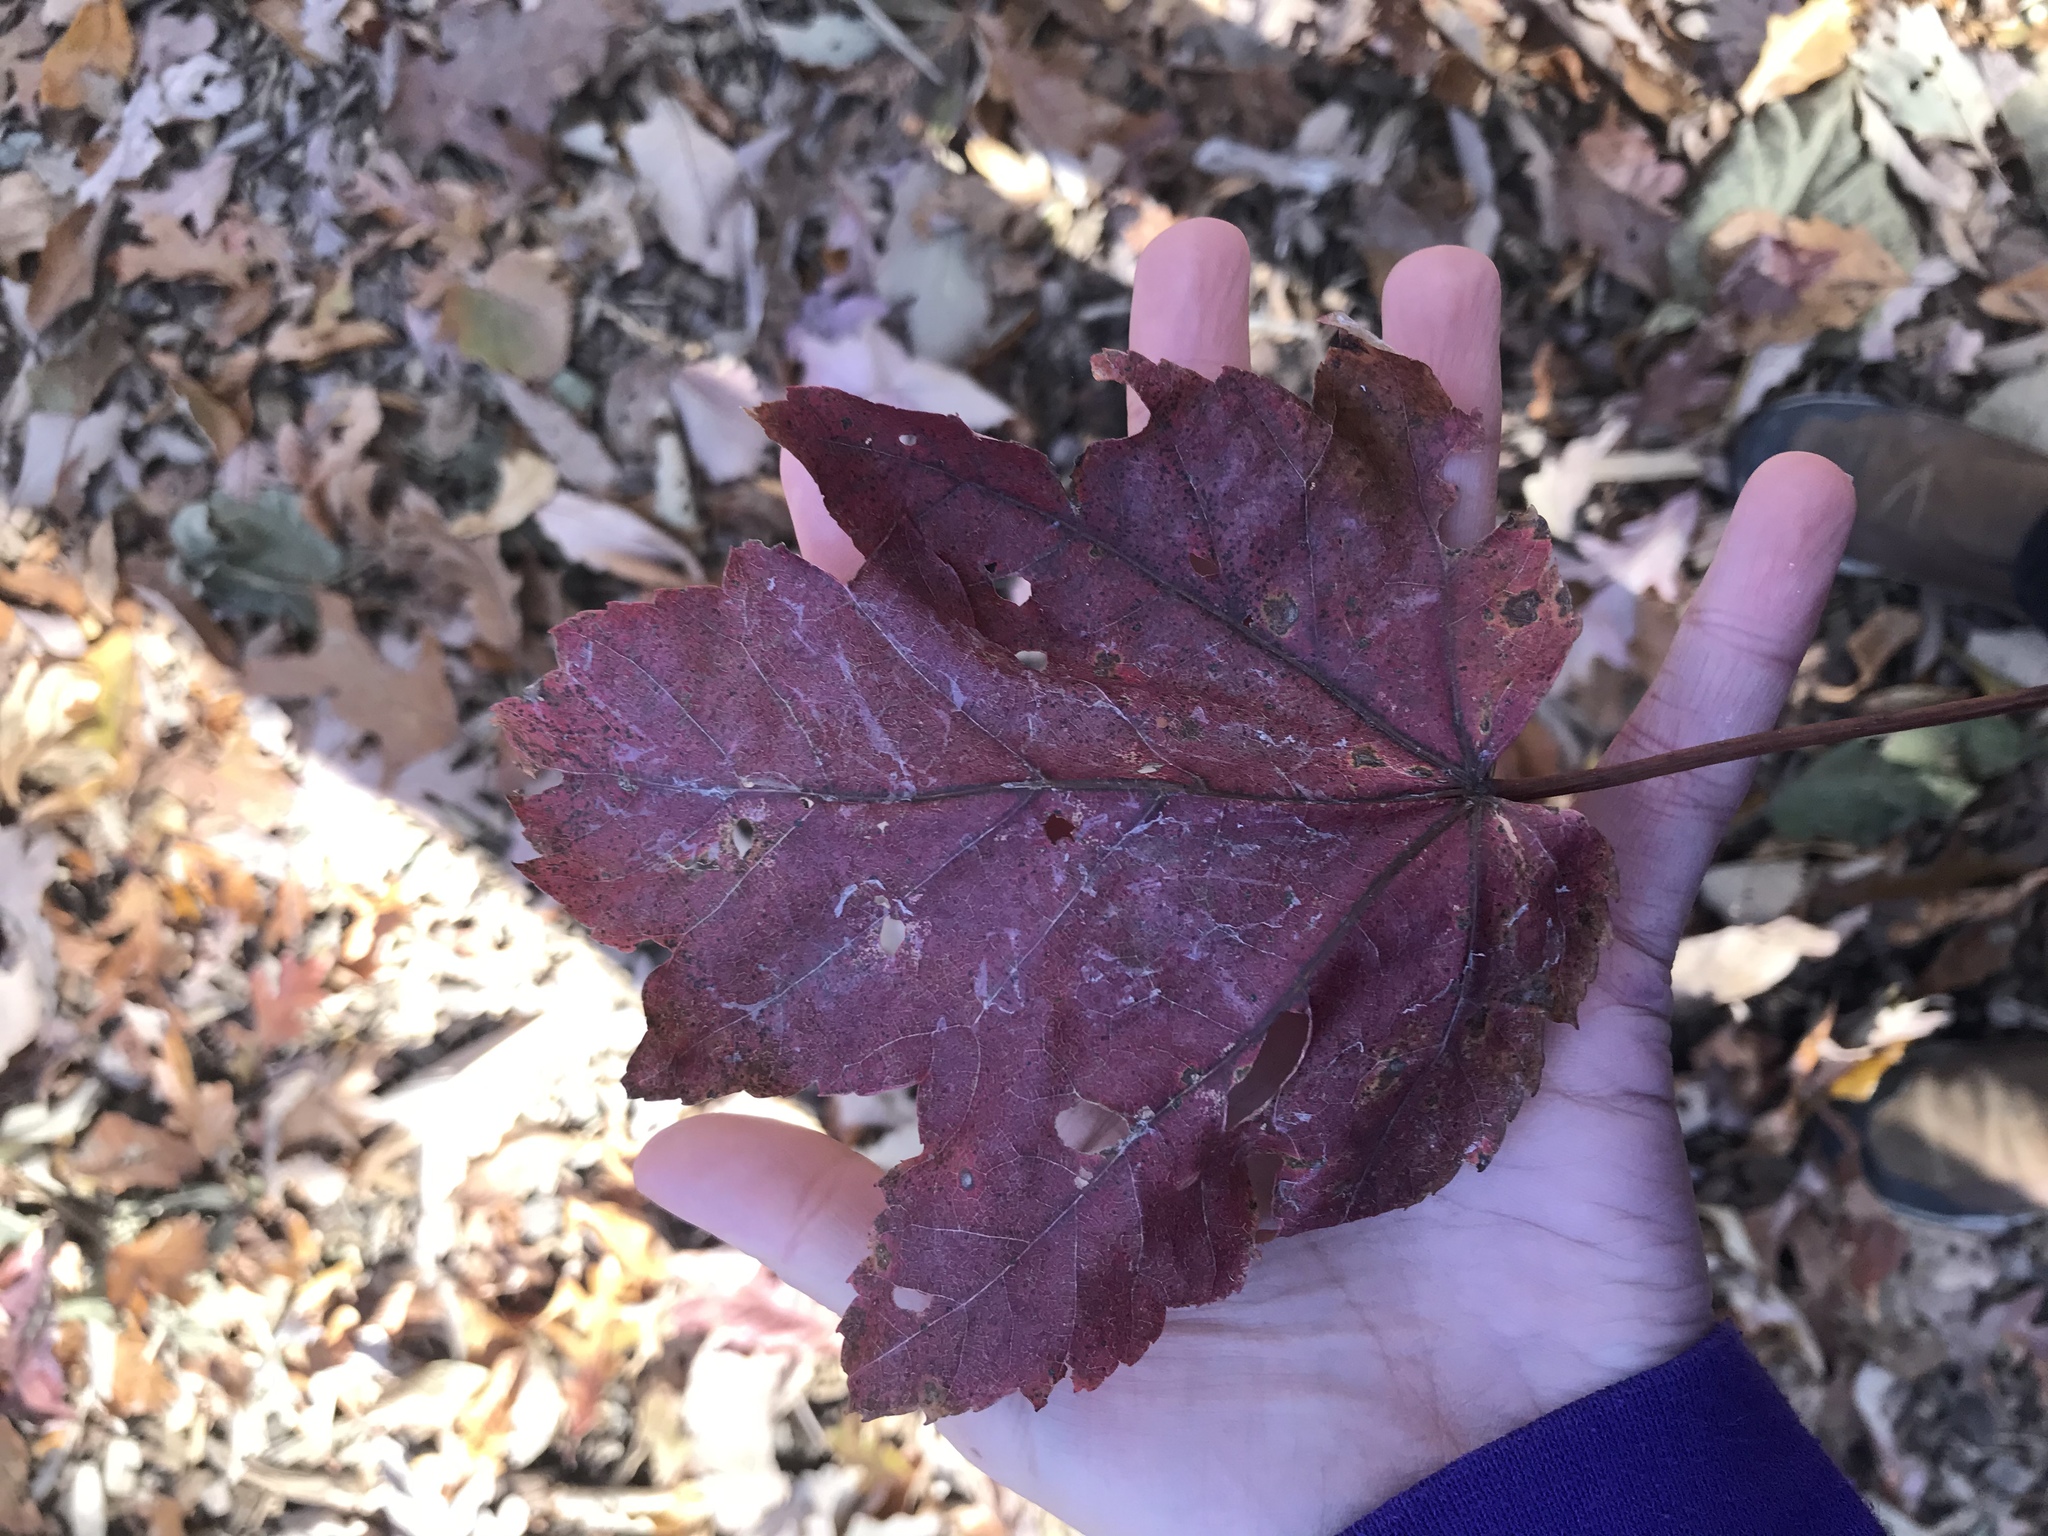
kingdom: Plantae
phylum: Tracheophyta
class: Magnoliopsida
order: Sapindales
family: Sapindaceae
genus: Acer
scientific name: Acer rubrum
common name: Red maple
